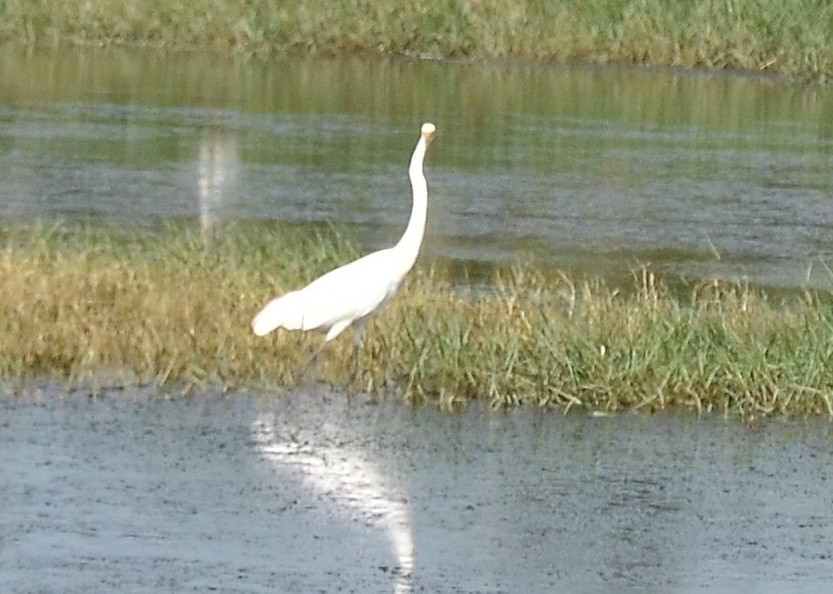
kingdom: Animalia
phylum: Chordata
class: Aves
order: Pelecaniformes
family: Ardeidae
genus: Ardea
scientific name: Ardea alba
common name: Great egret
